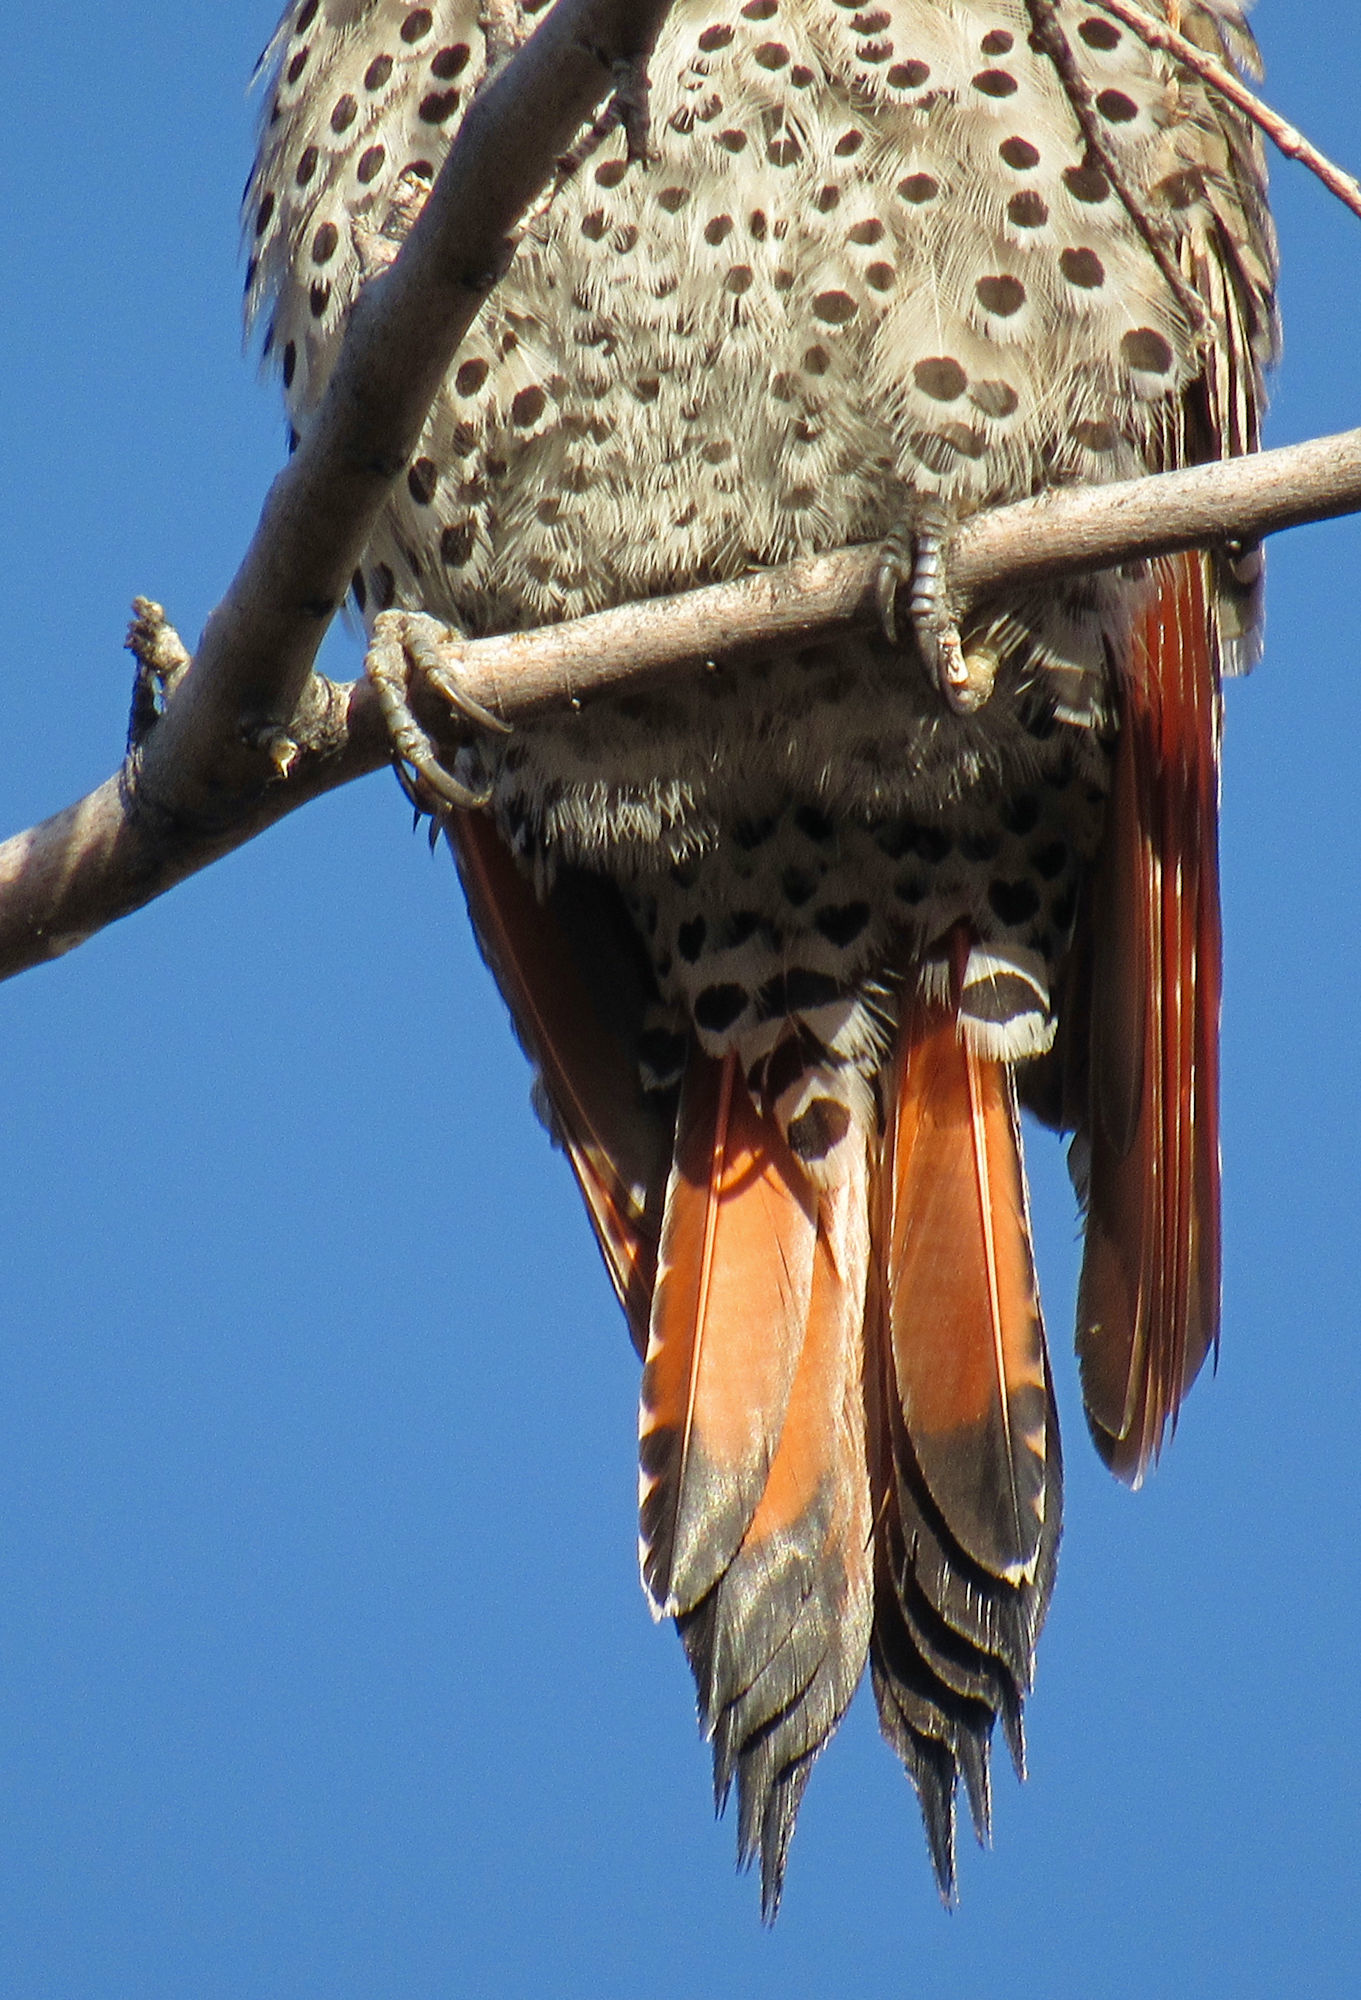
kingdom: Animalia
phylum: Chordata
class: Aves
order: Piciformes
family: Picidae
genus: Colaptes
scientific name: Colaptes auratus
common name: Northern flicker
